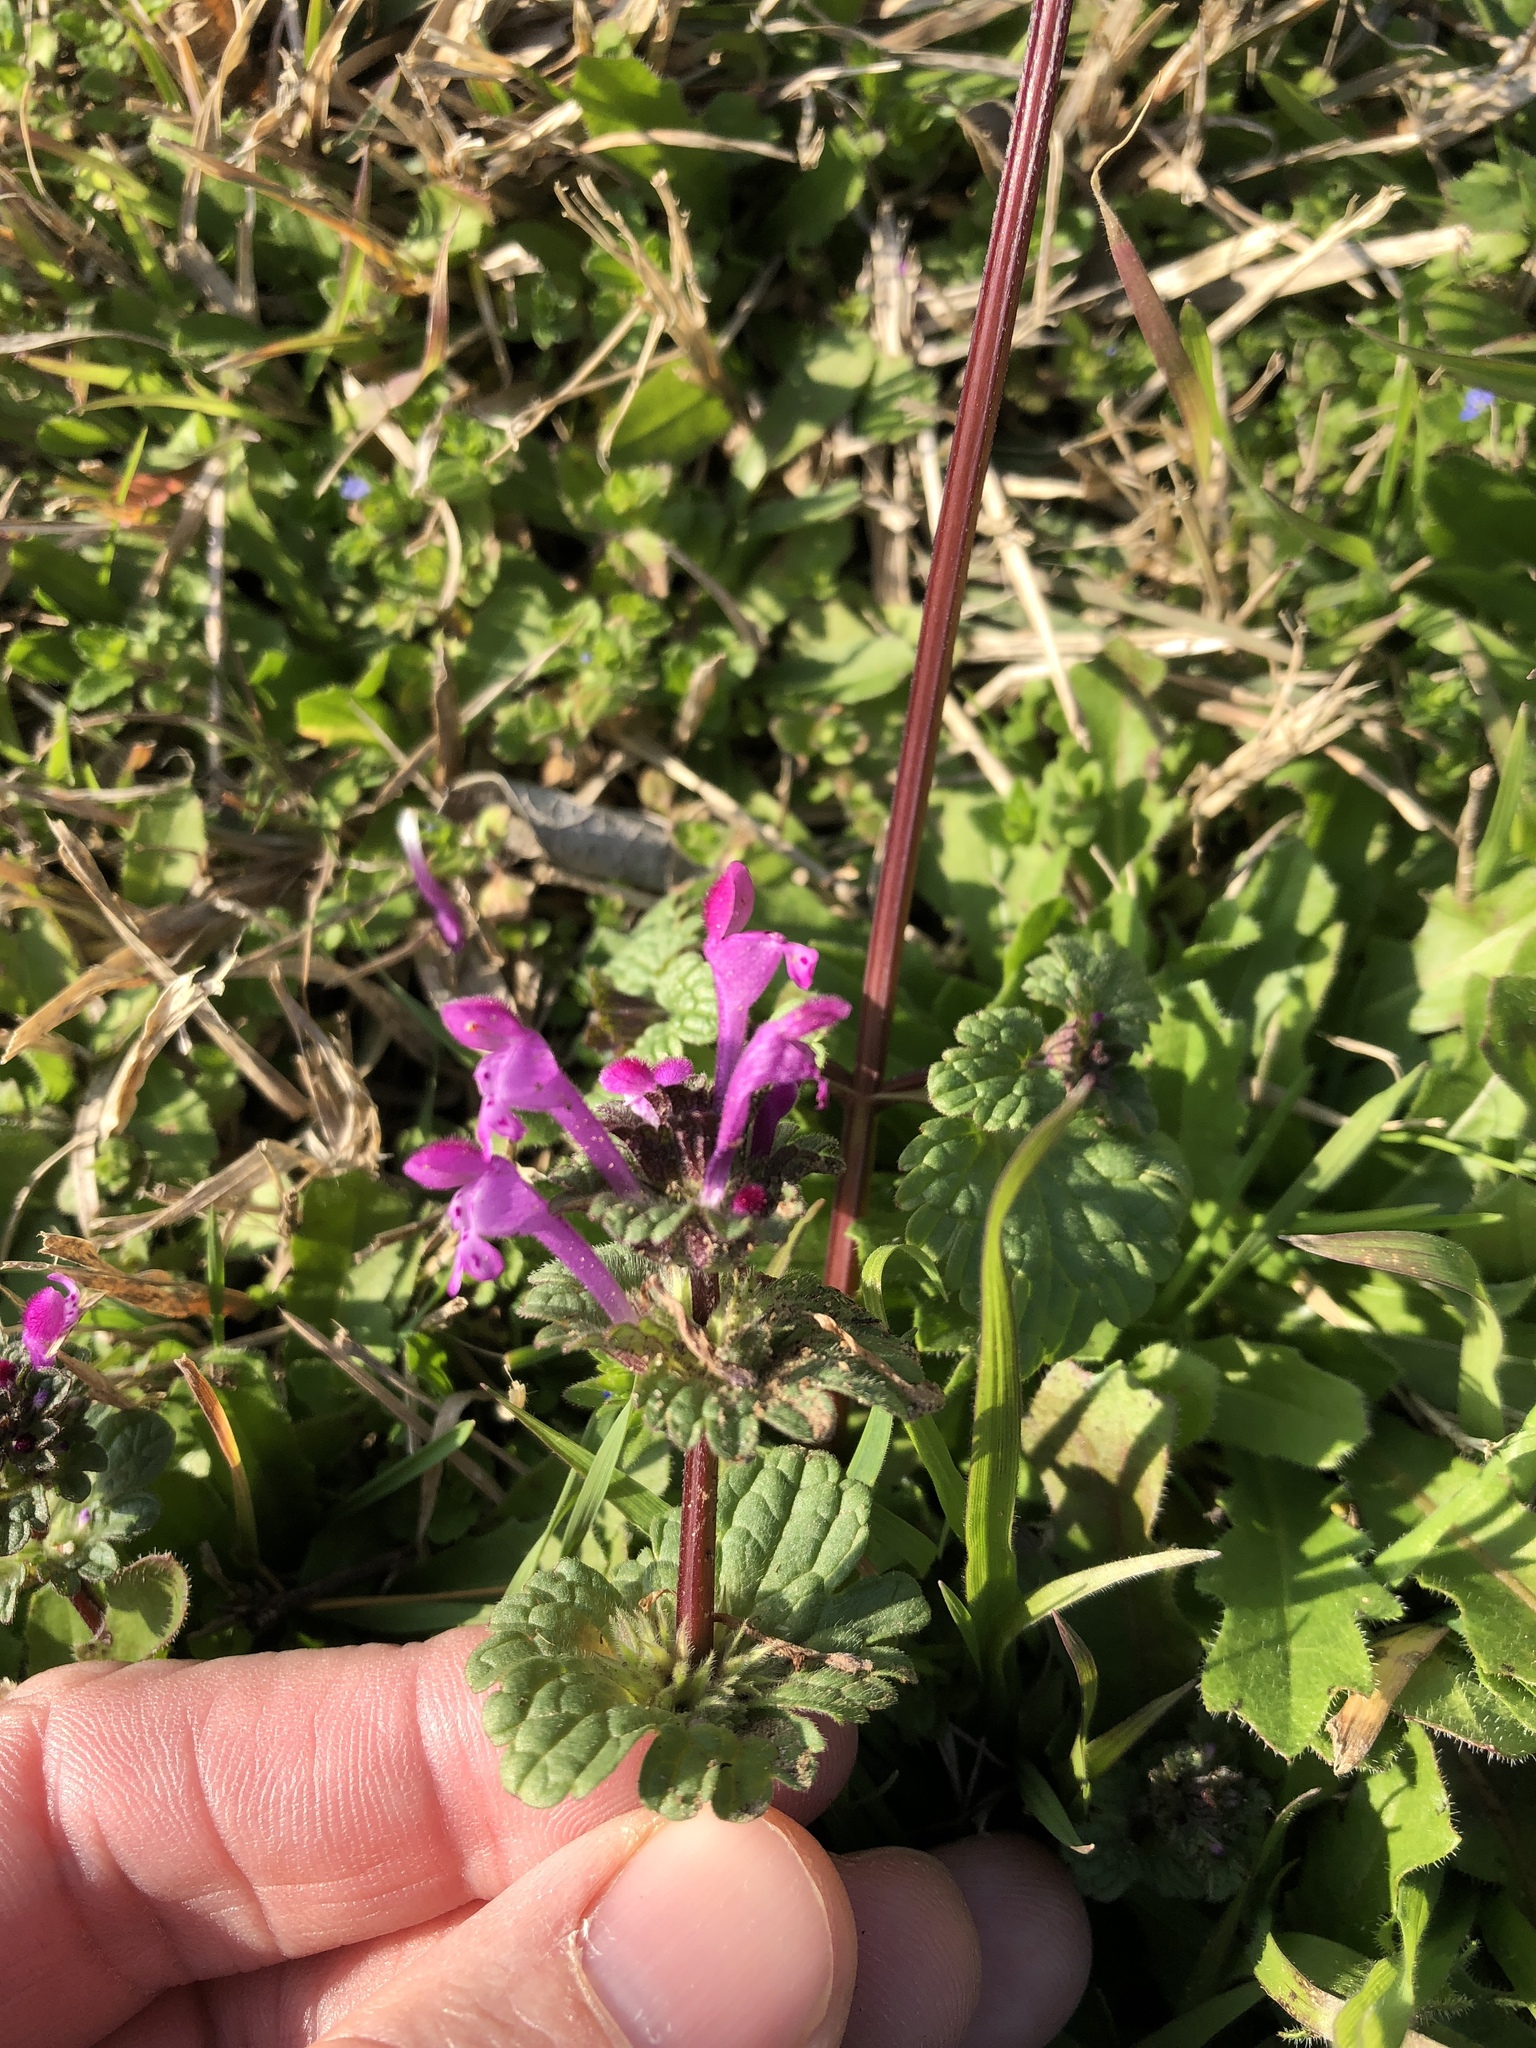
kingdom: Plantae
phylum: Tracheophyta
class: Magnoliopsida
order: Lamiales
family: Lamiaceae
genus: Lamium
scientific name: Lamium amplexicaule
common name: Henbit dead-nettle
